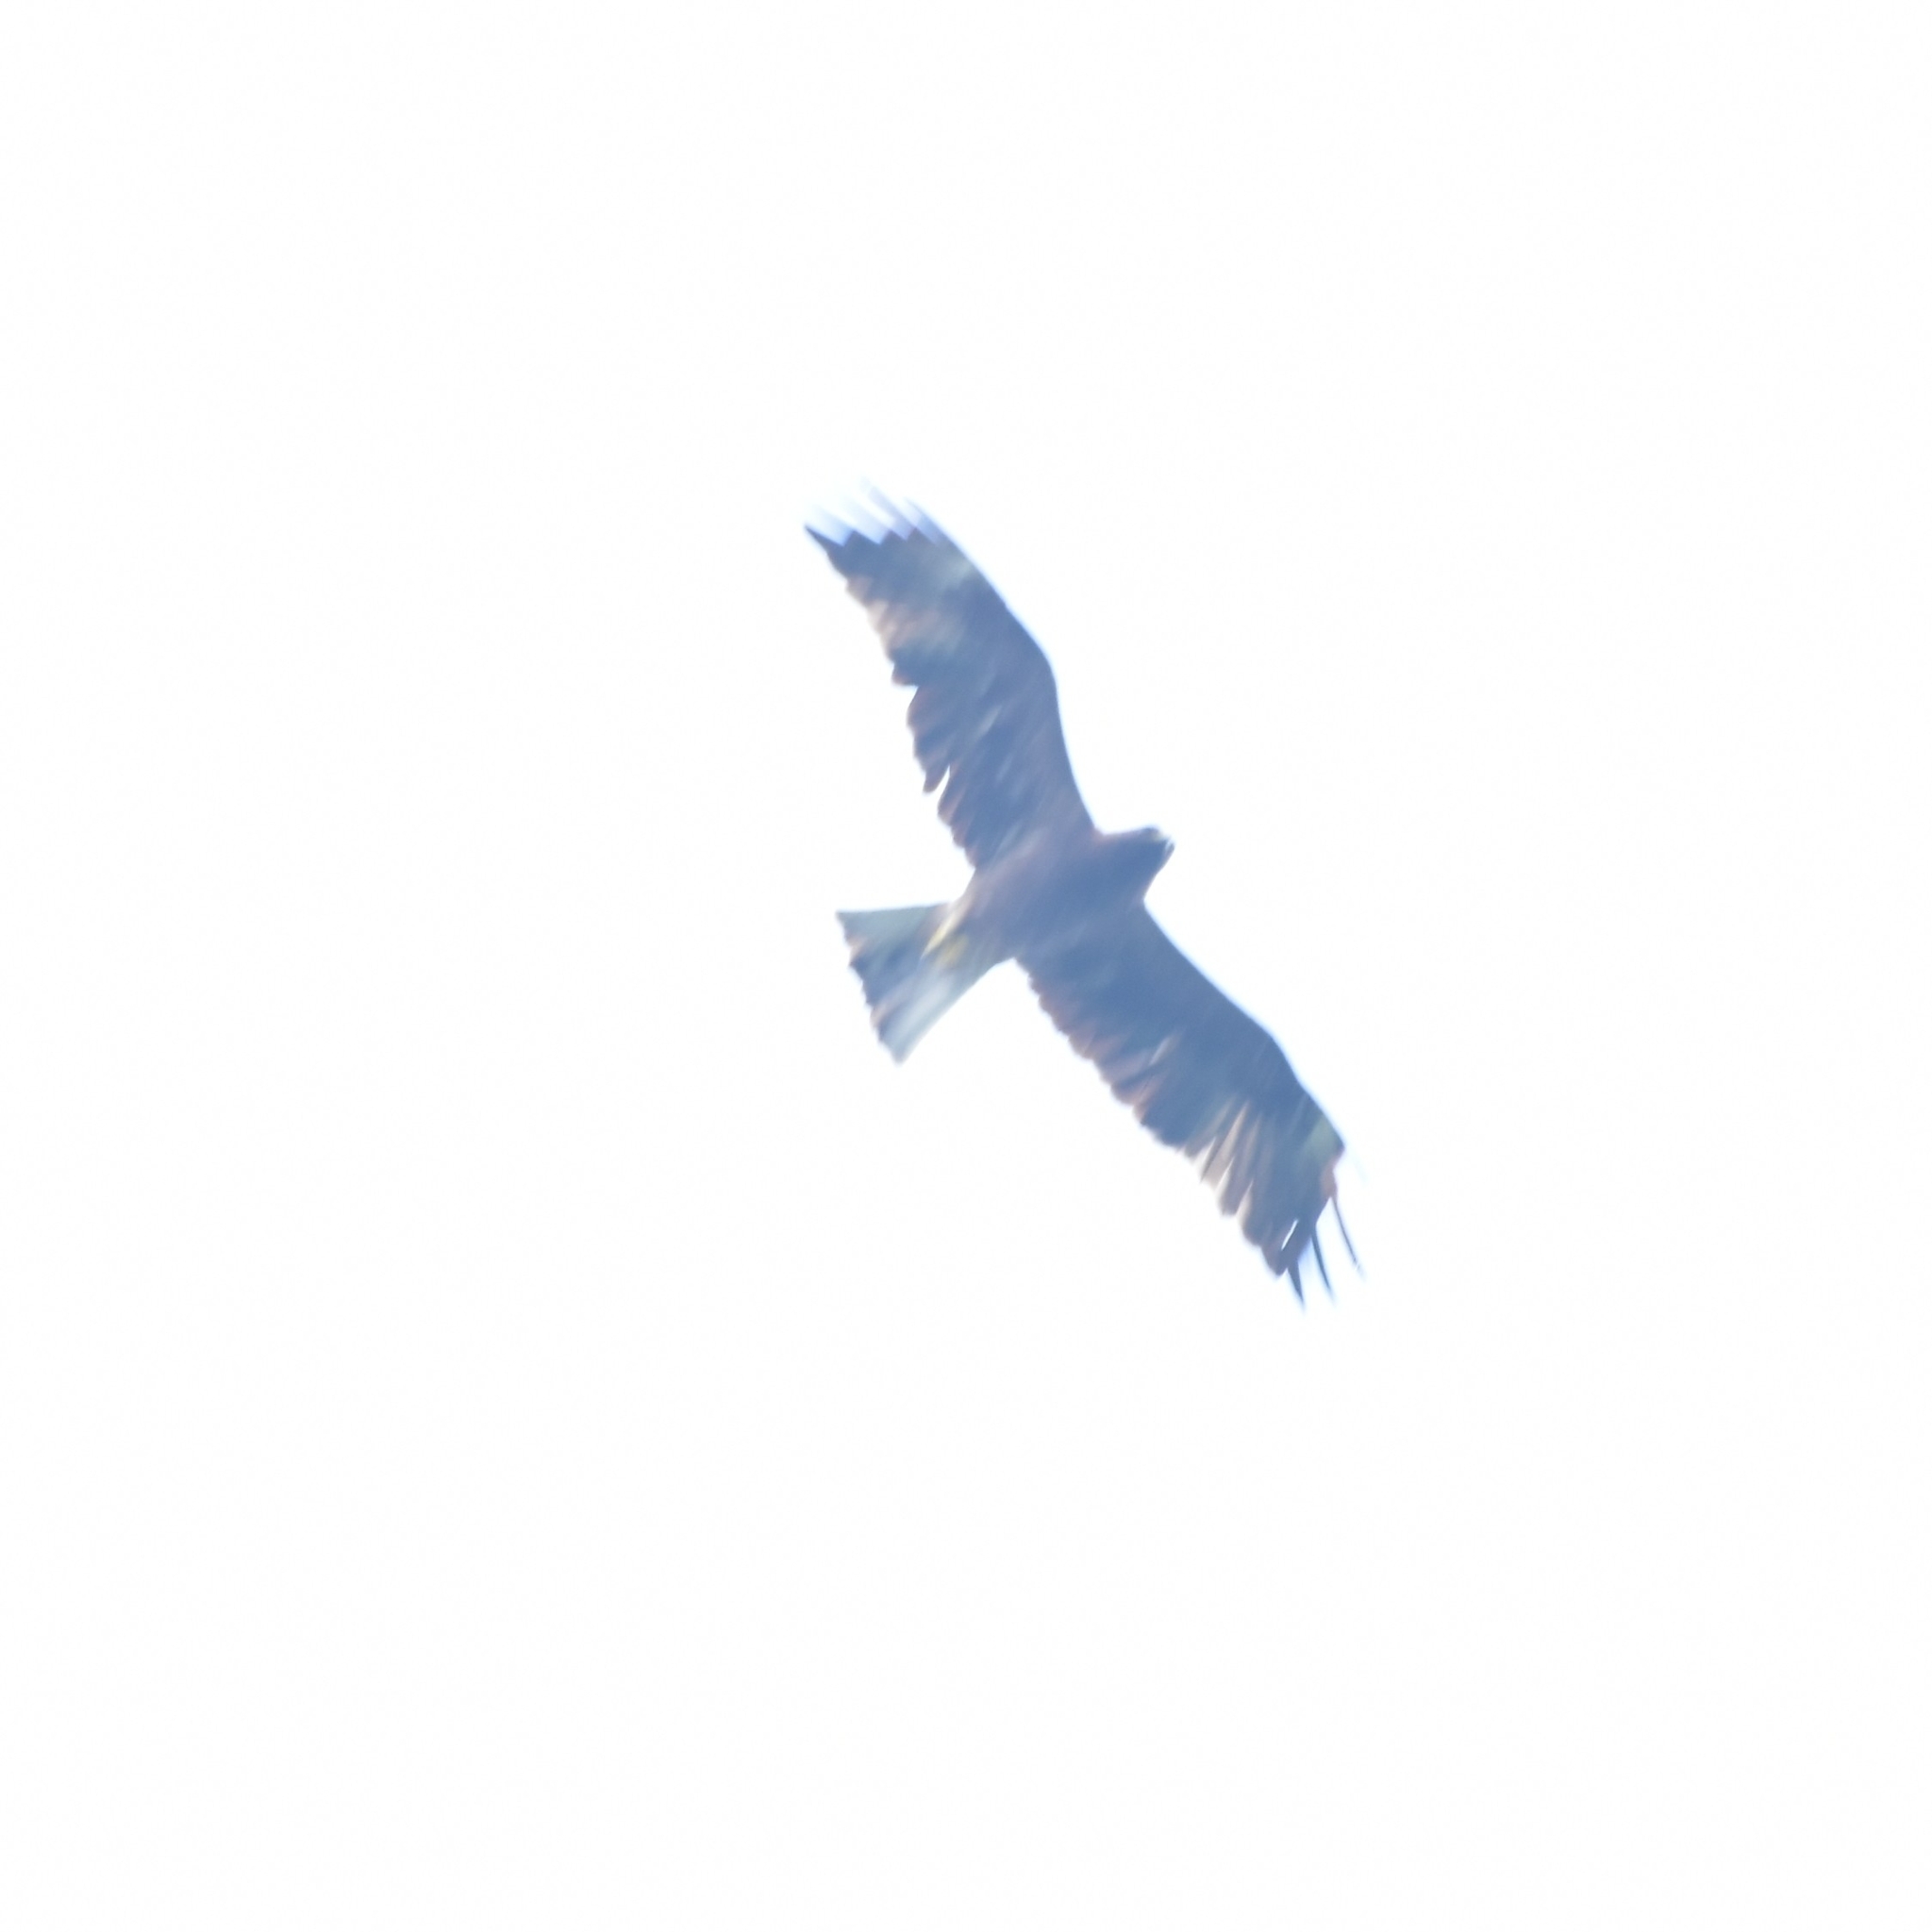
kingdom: Animalia
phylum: Chordata
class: Aves
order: Accipitriformes
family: Accipitridae
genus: Hieraaetus
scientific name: Hieraaetus pennatus
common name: Booted eagle
